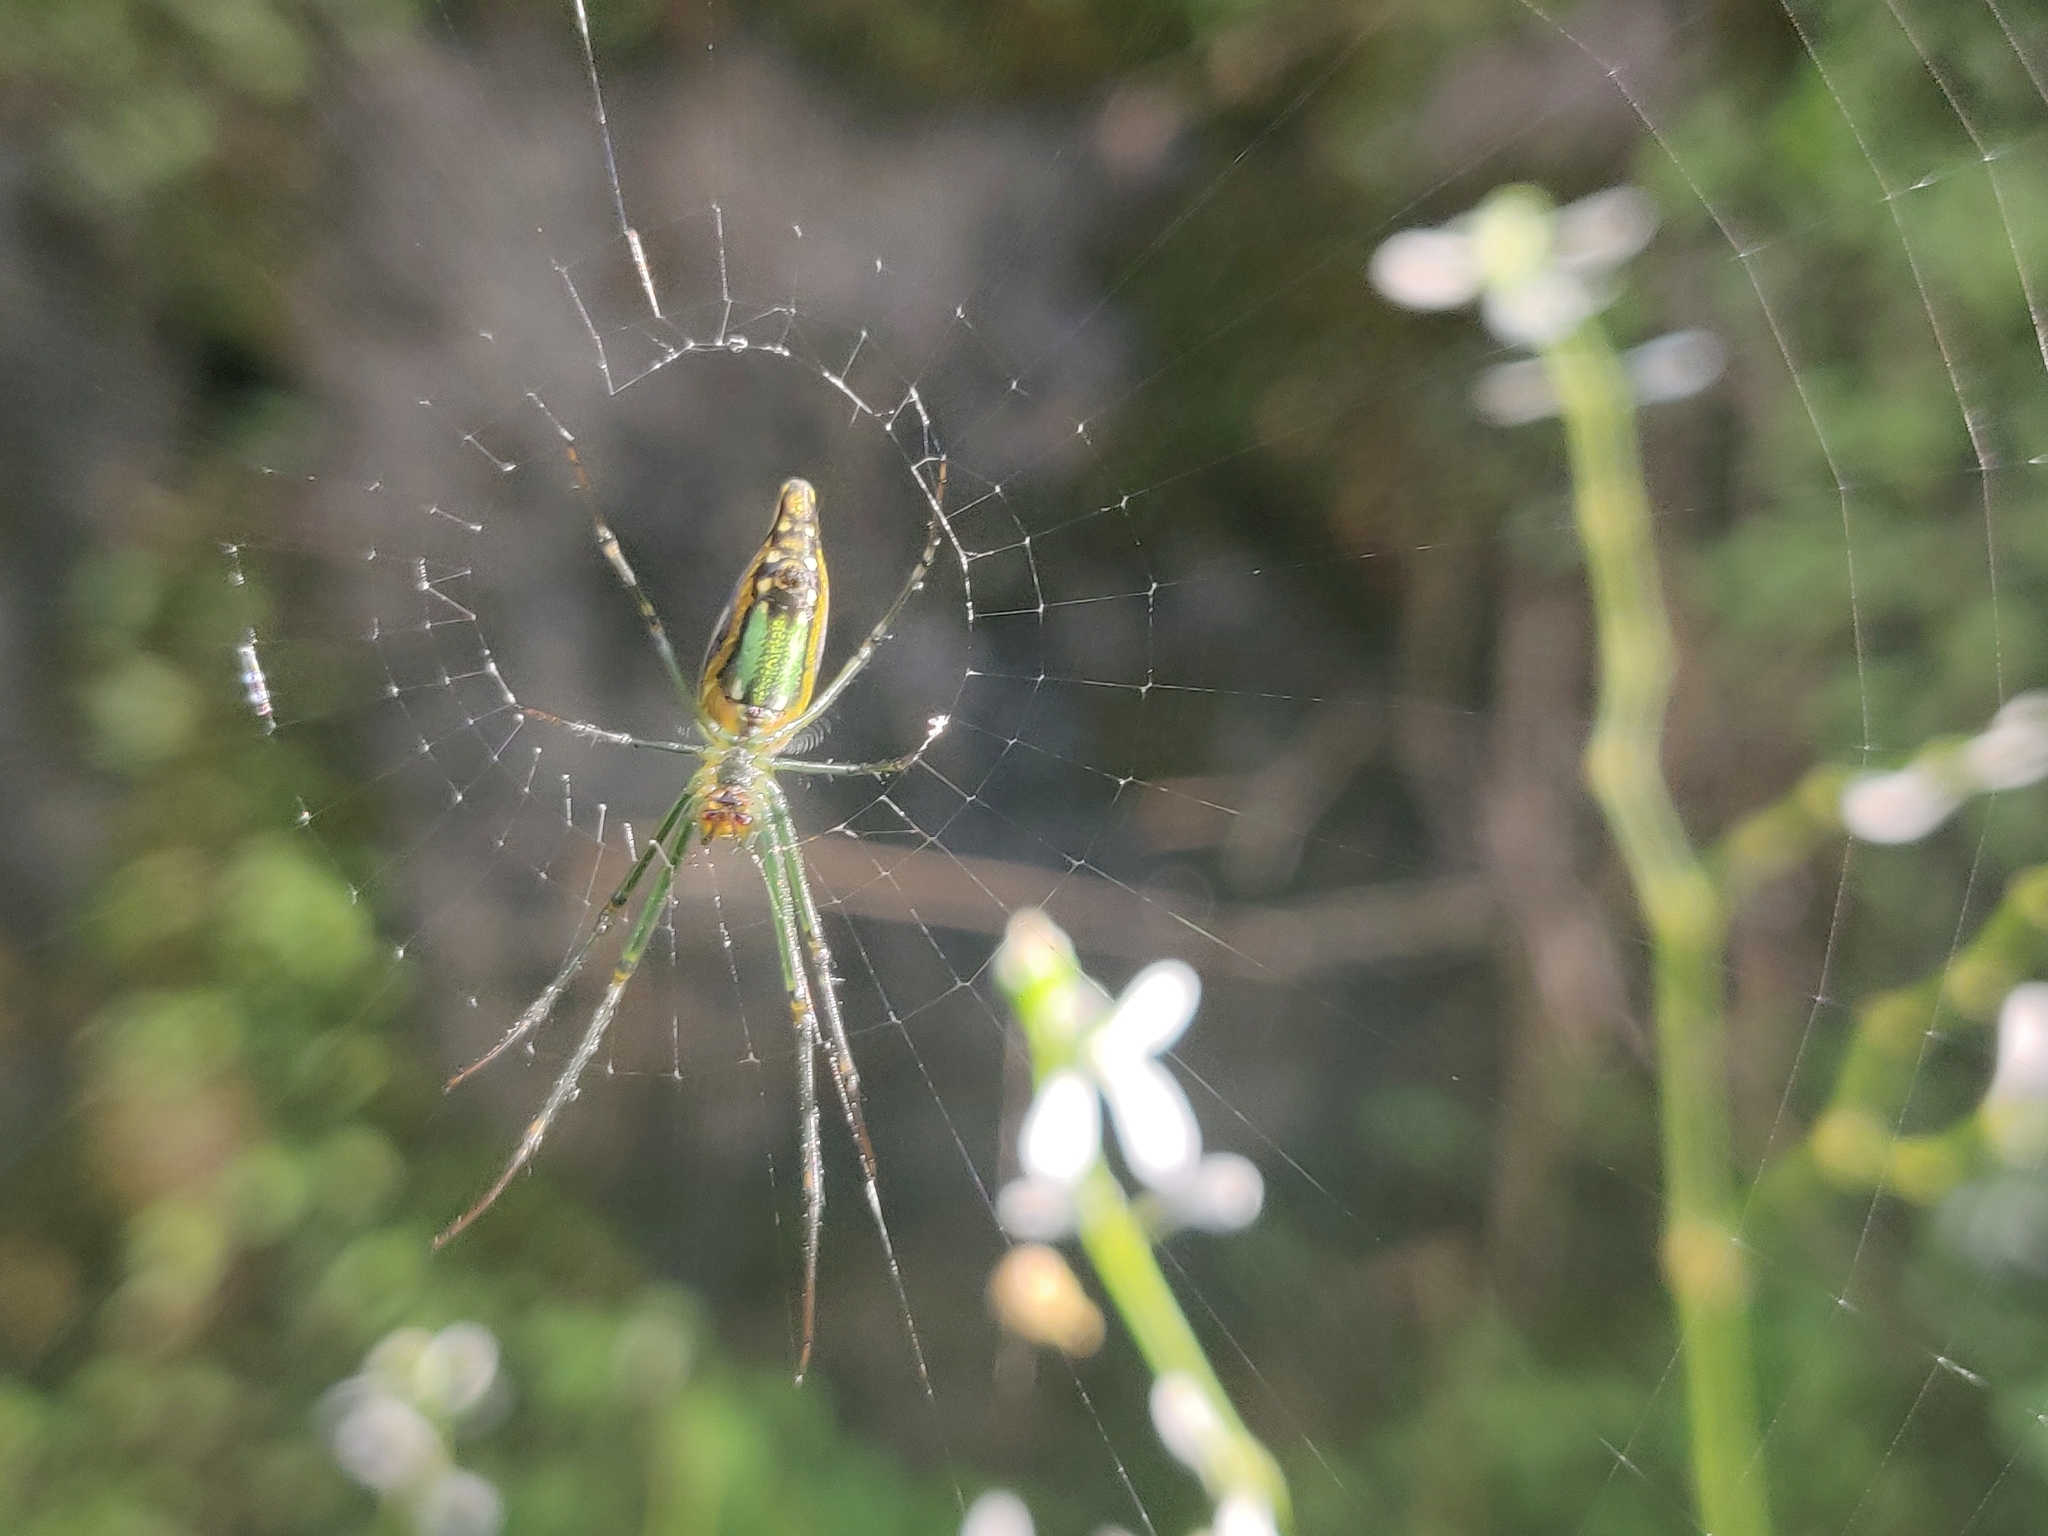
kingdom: Animalia
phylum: Arthropoda
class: Arachnida
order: Araneae
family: Tetragnathidae
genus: Leucauge
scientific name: Leucauge decorata
